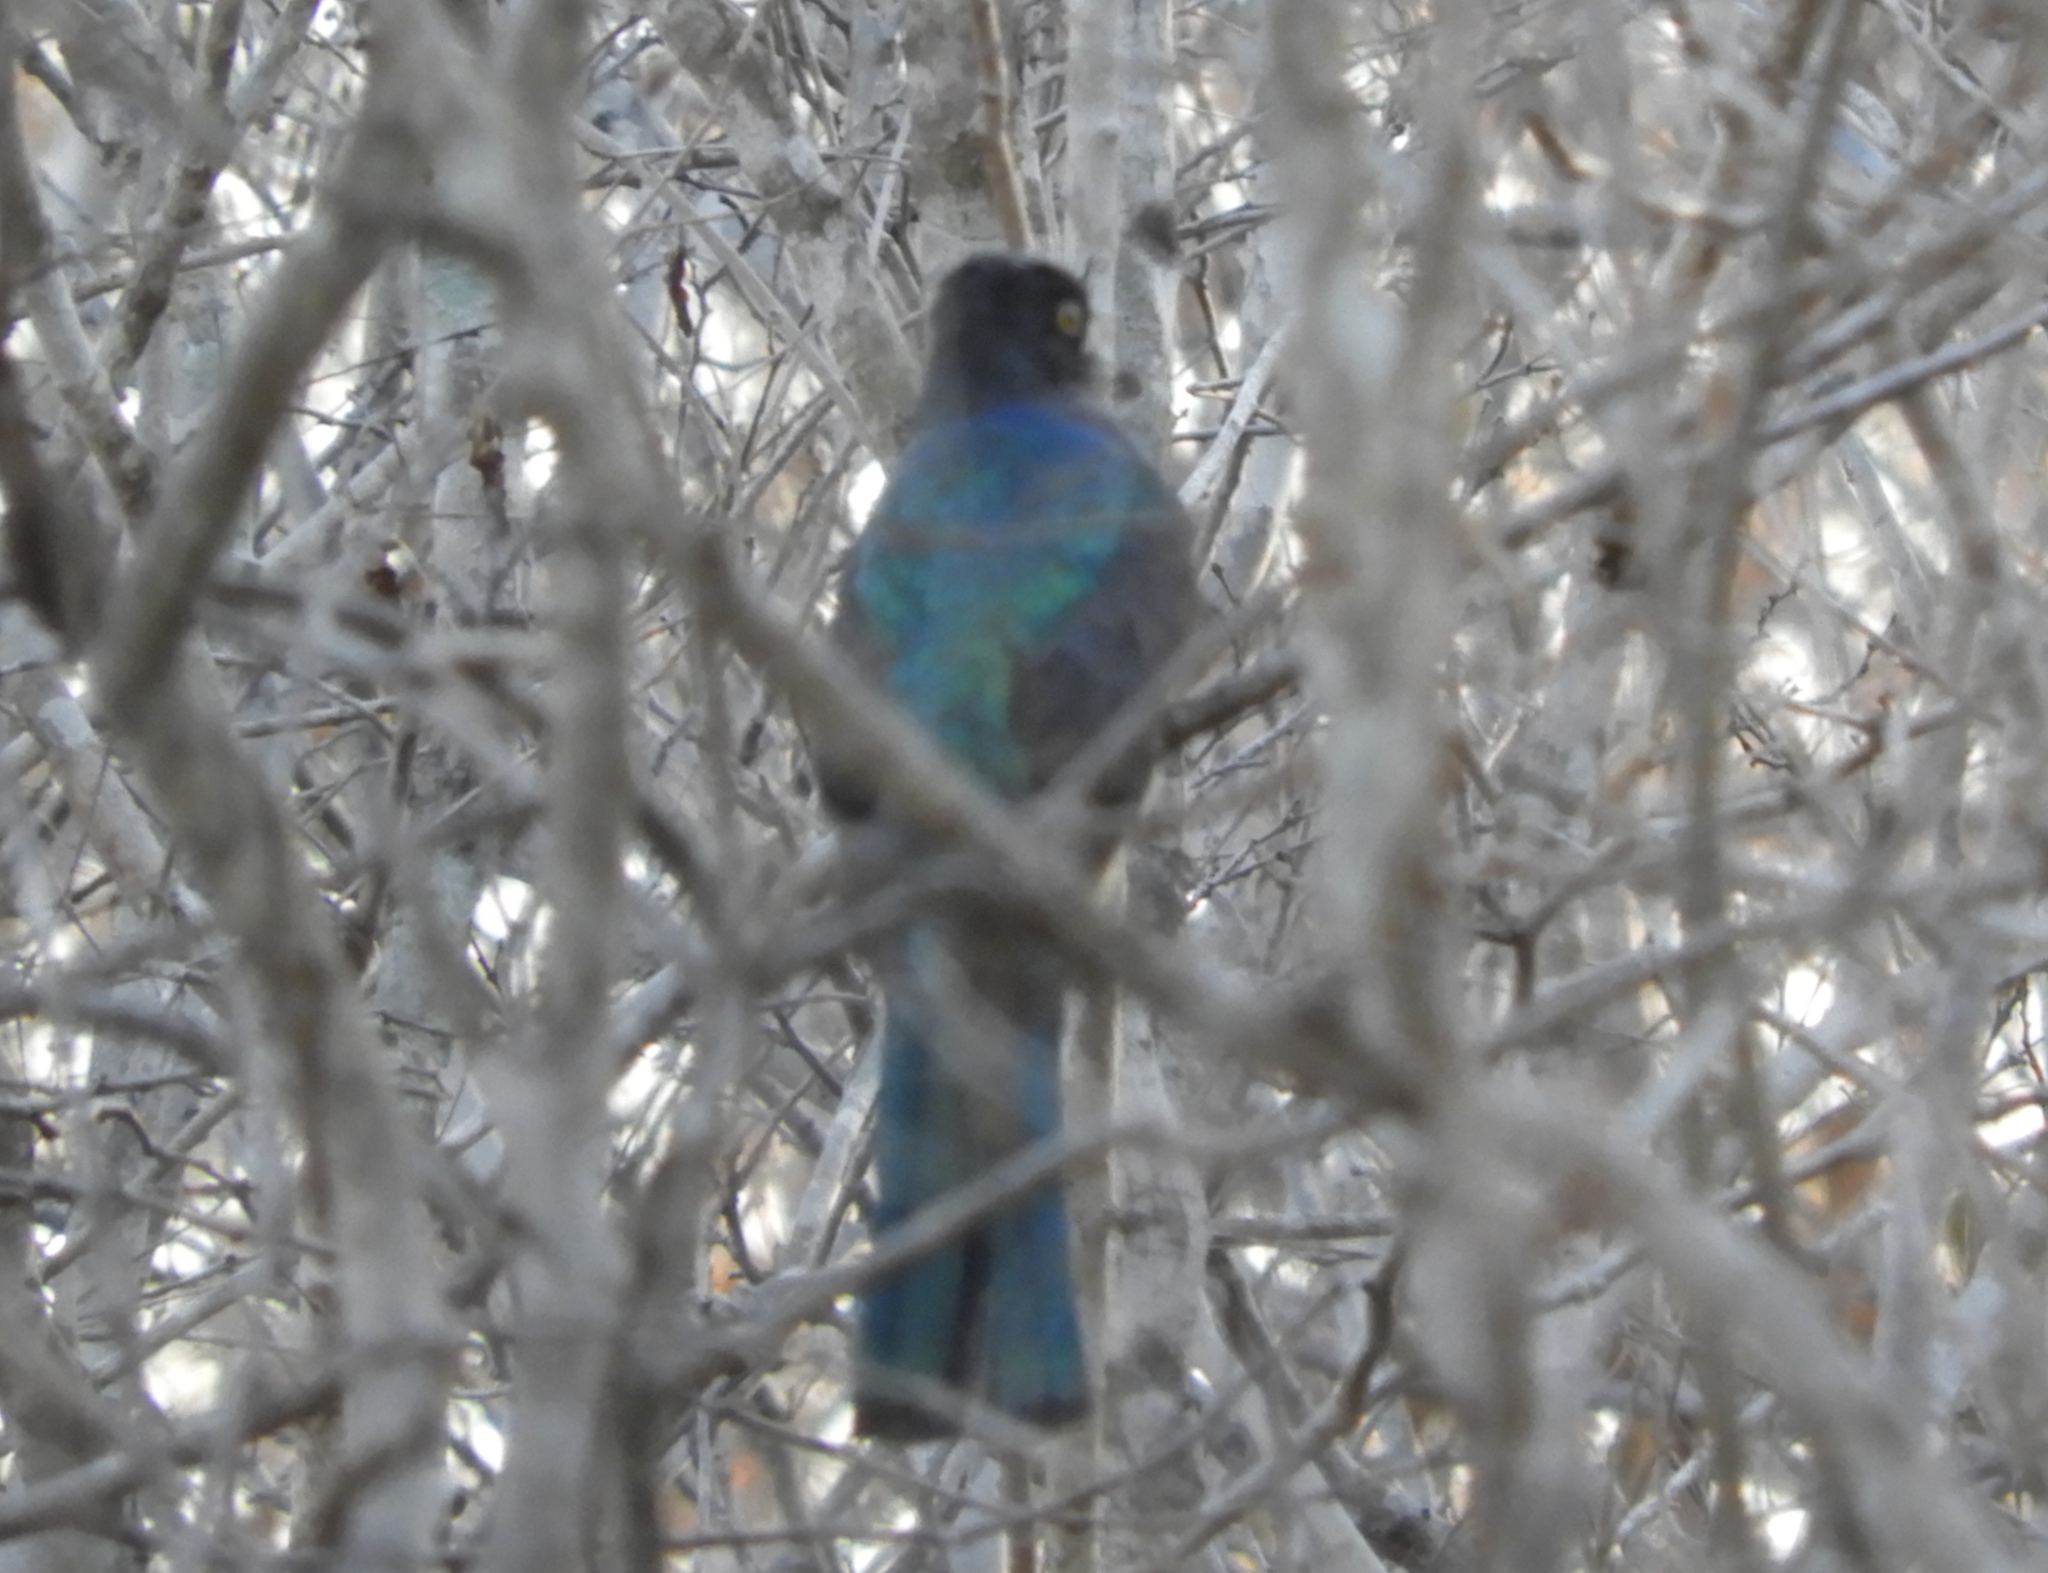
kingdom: Animalia
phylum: Chordata
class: Aves
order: Trogoniformes
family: Trogonidae
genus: Trogon
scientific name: Trogon citreolus
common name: Citreoline trogon
